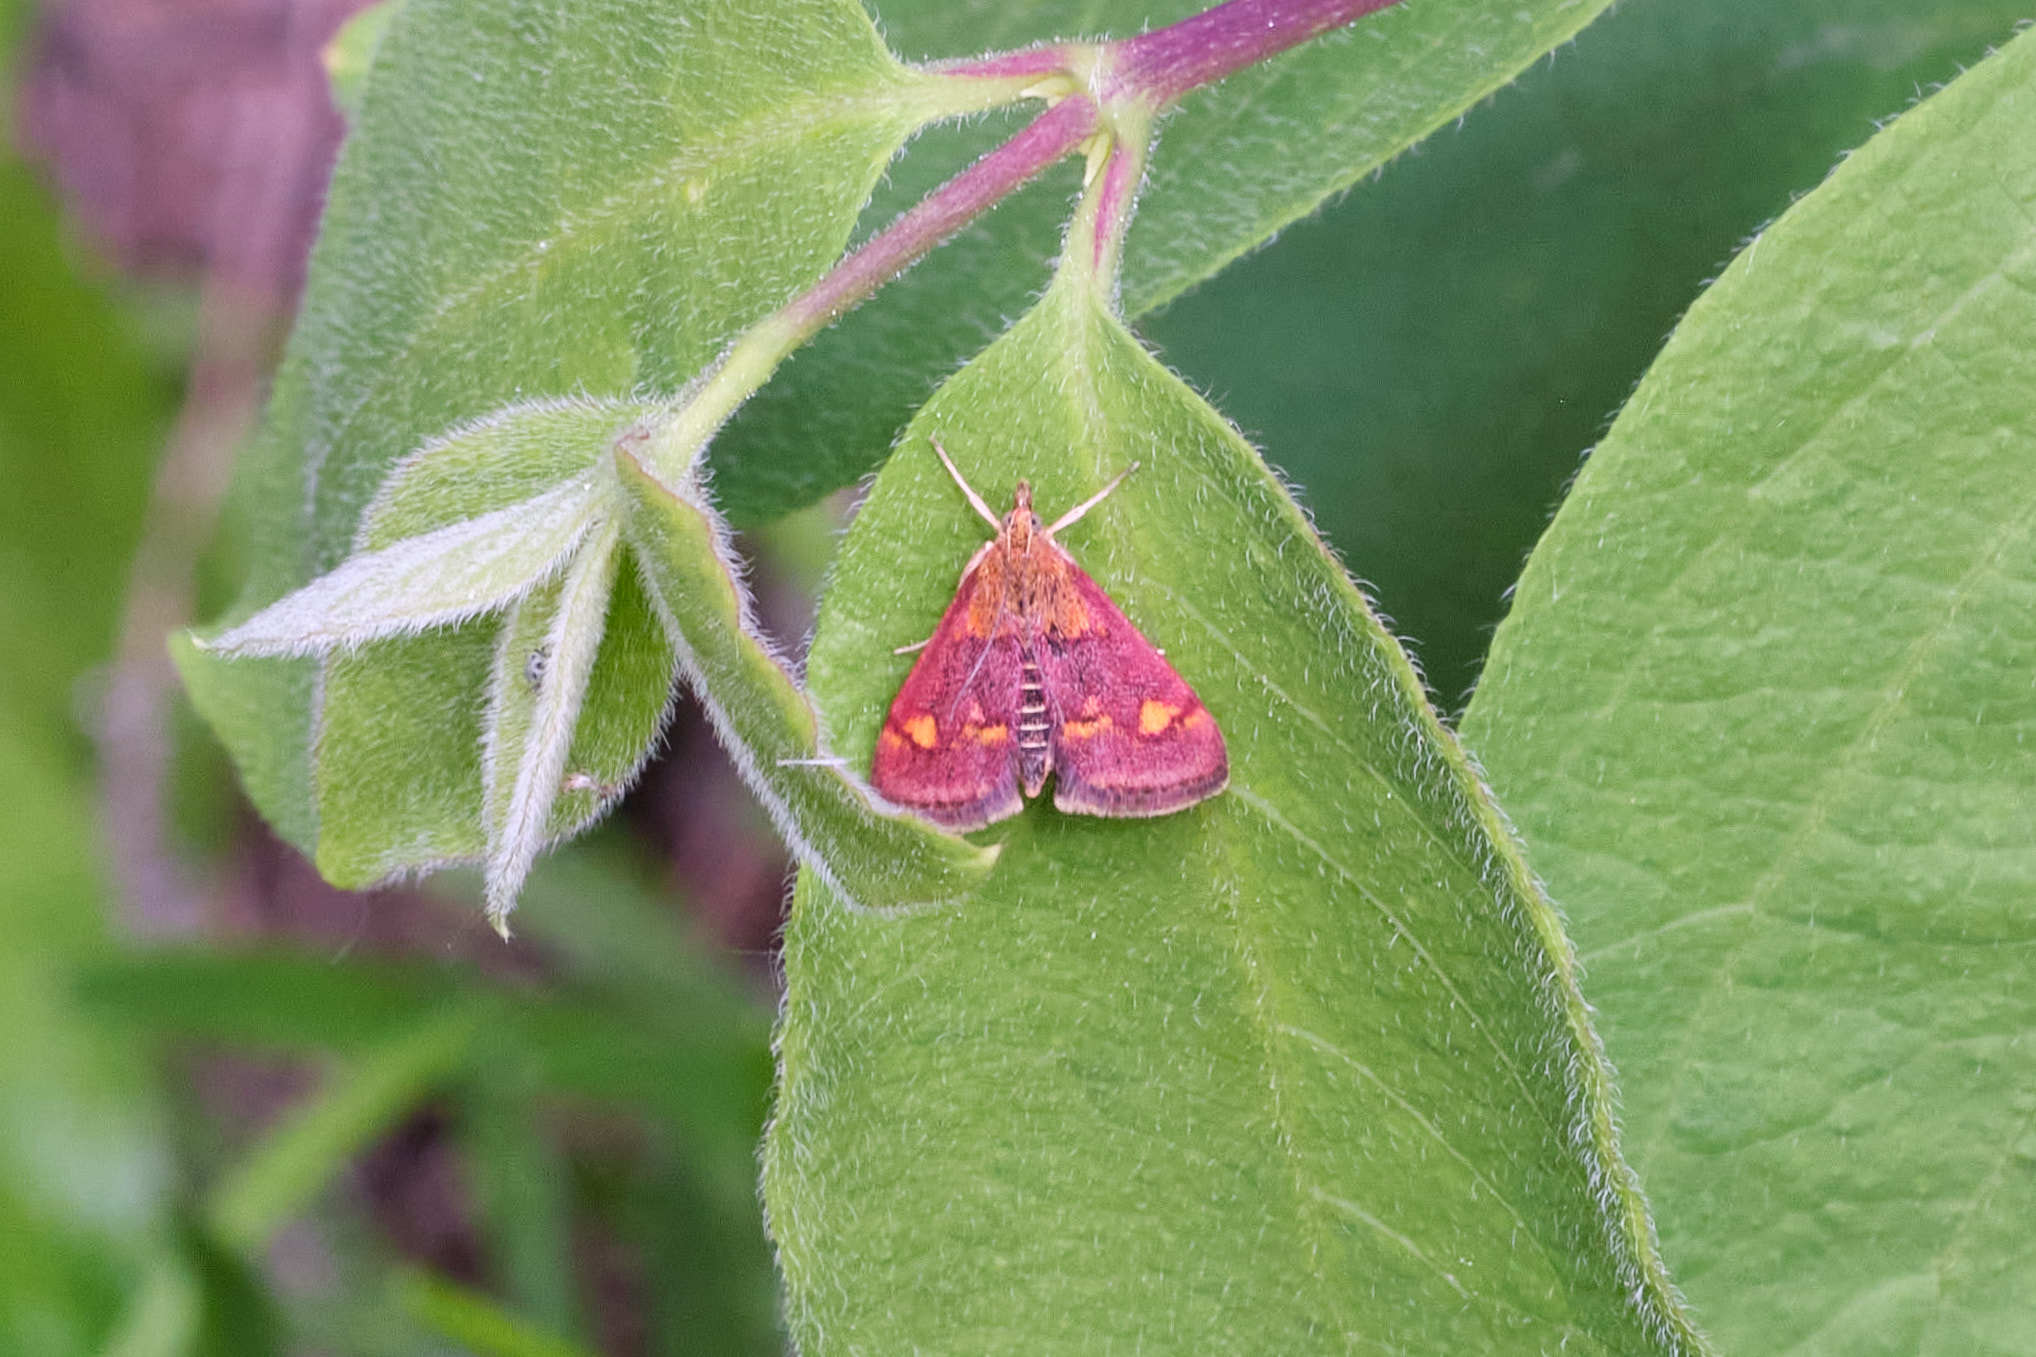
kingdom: Animalia
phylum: Arthropoda
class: Insecta
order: Lepidoptera
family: Crambidae
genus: Pyrausta
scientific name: Pyrausta aurata
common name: Small purple & gold
